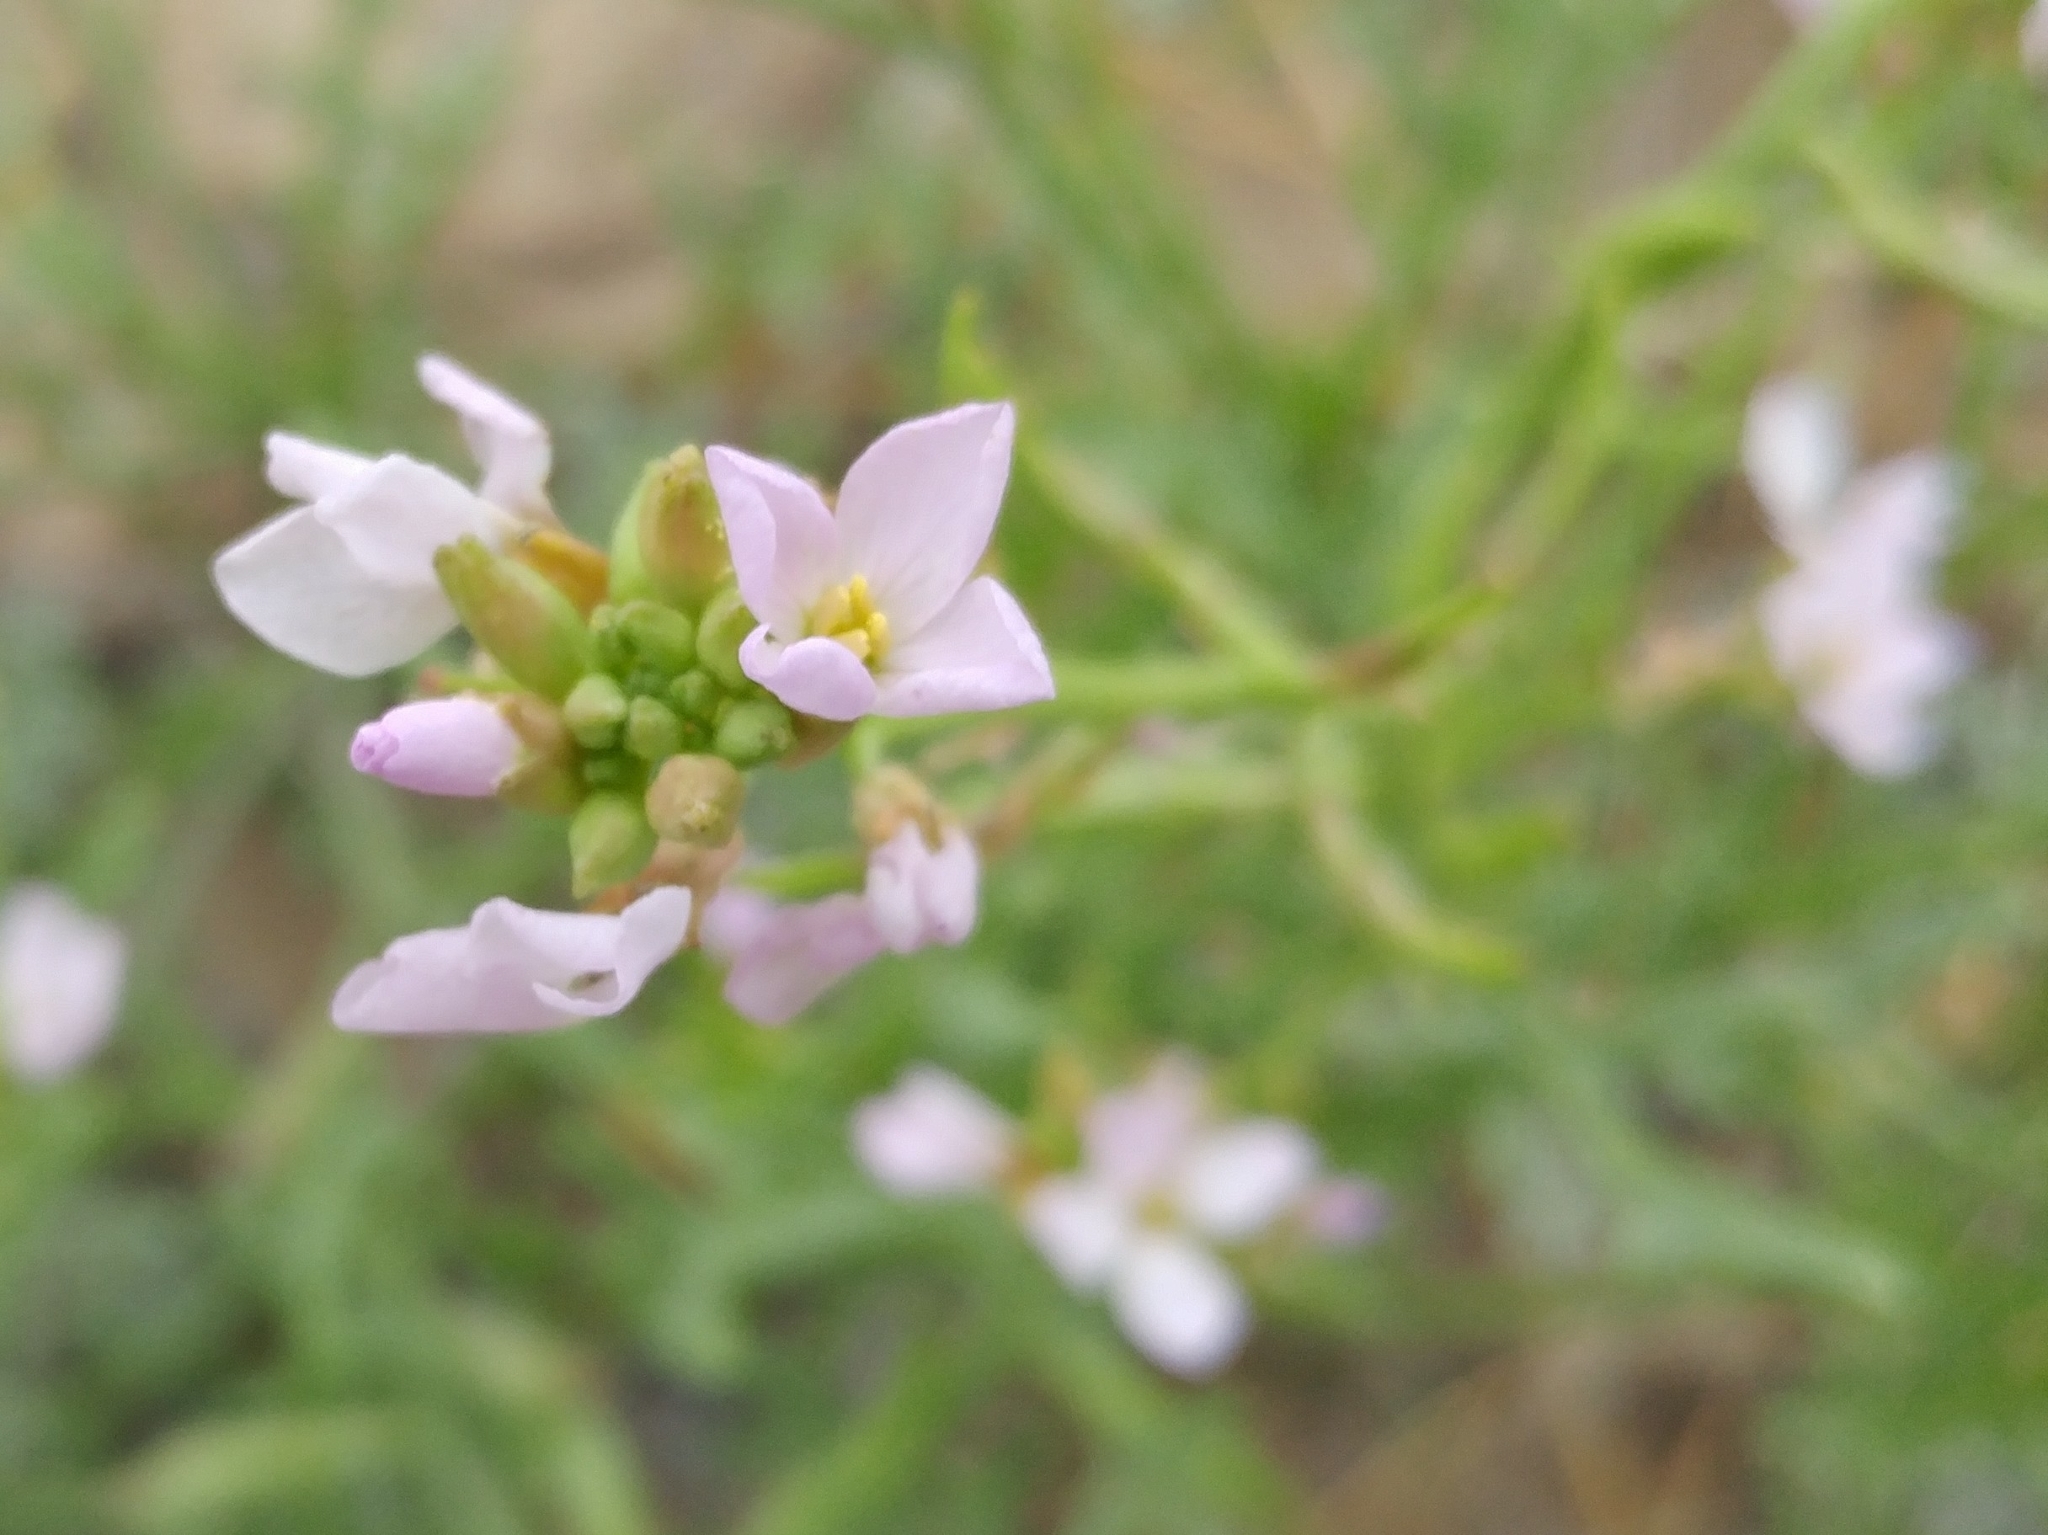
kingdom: Plantae
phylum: Tracheophyta
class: Magnoliopsida
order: Brassicales
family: Brassicaceae
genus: Cakile
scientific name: Cakile maritima
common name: Sea rocket
